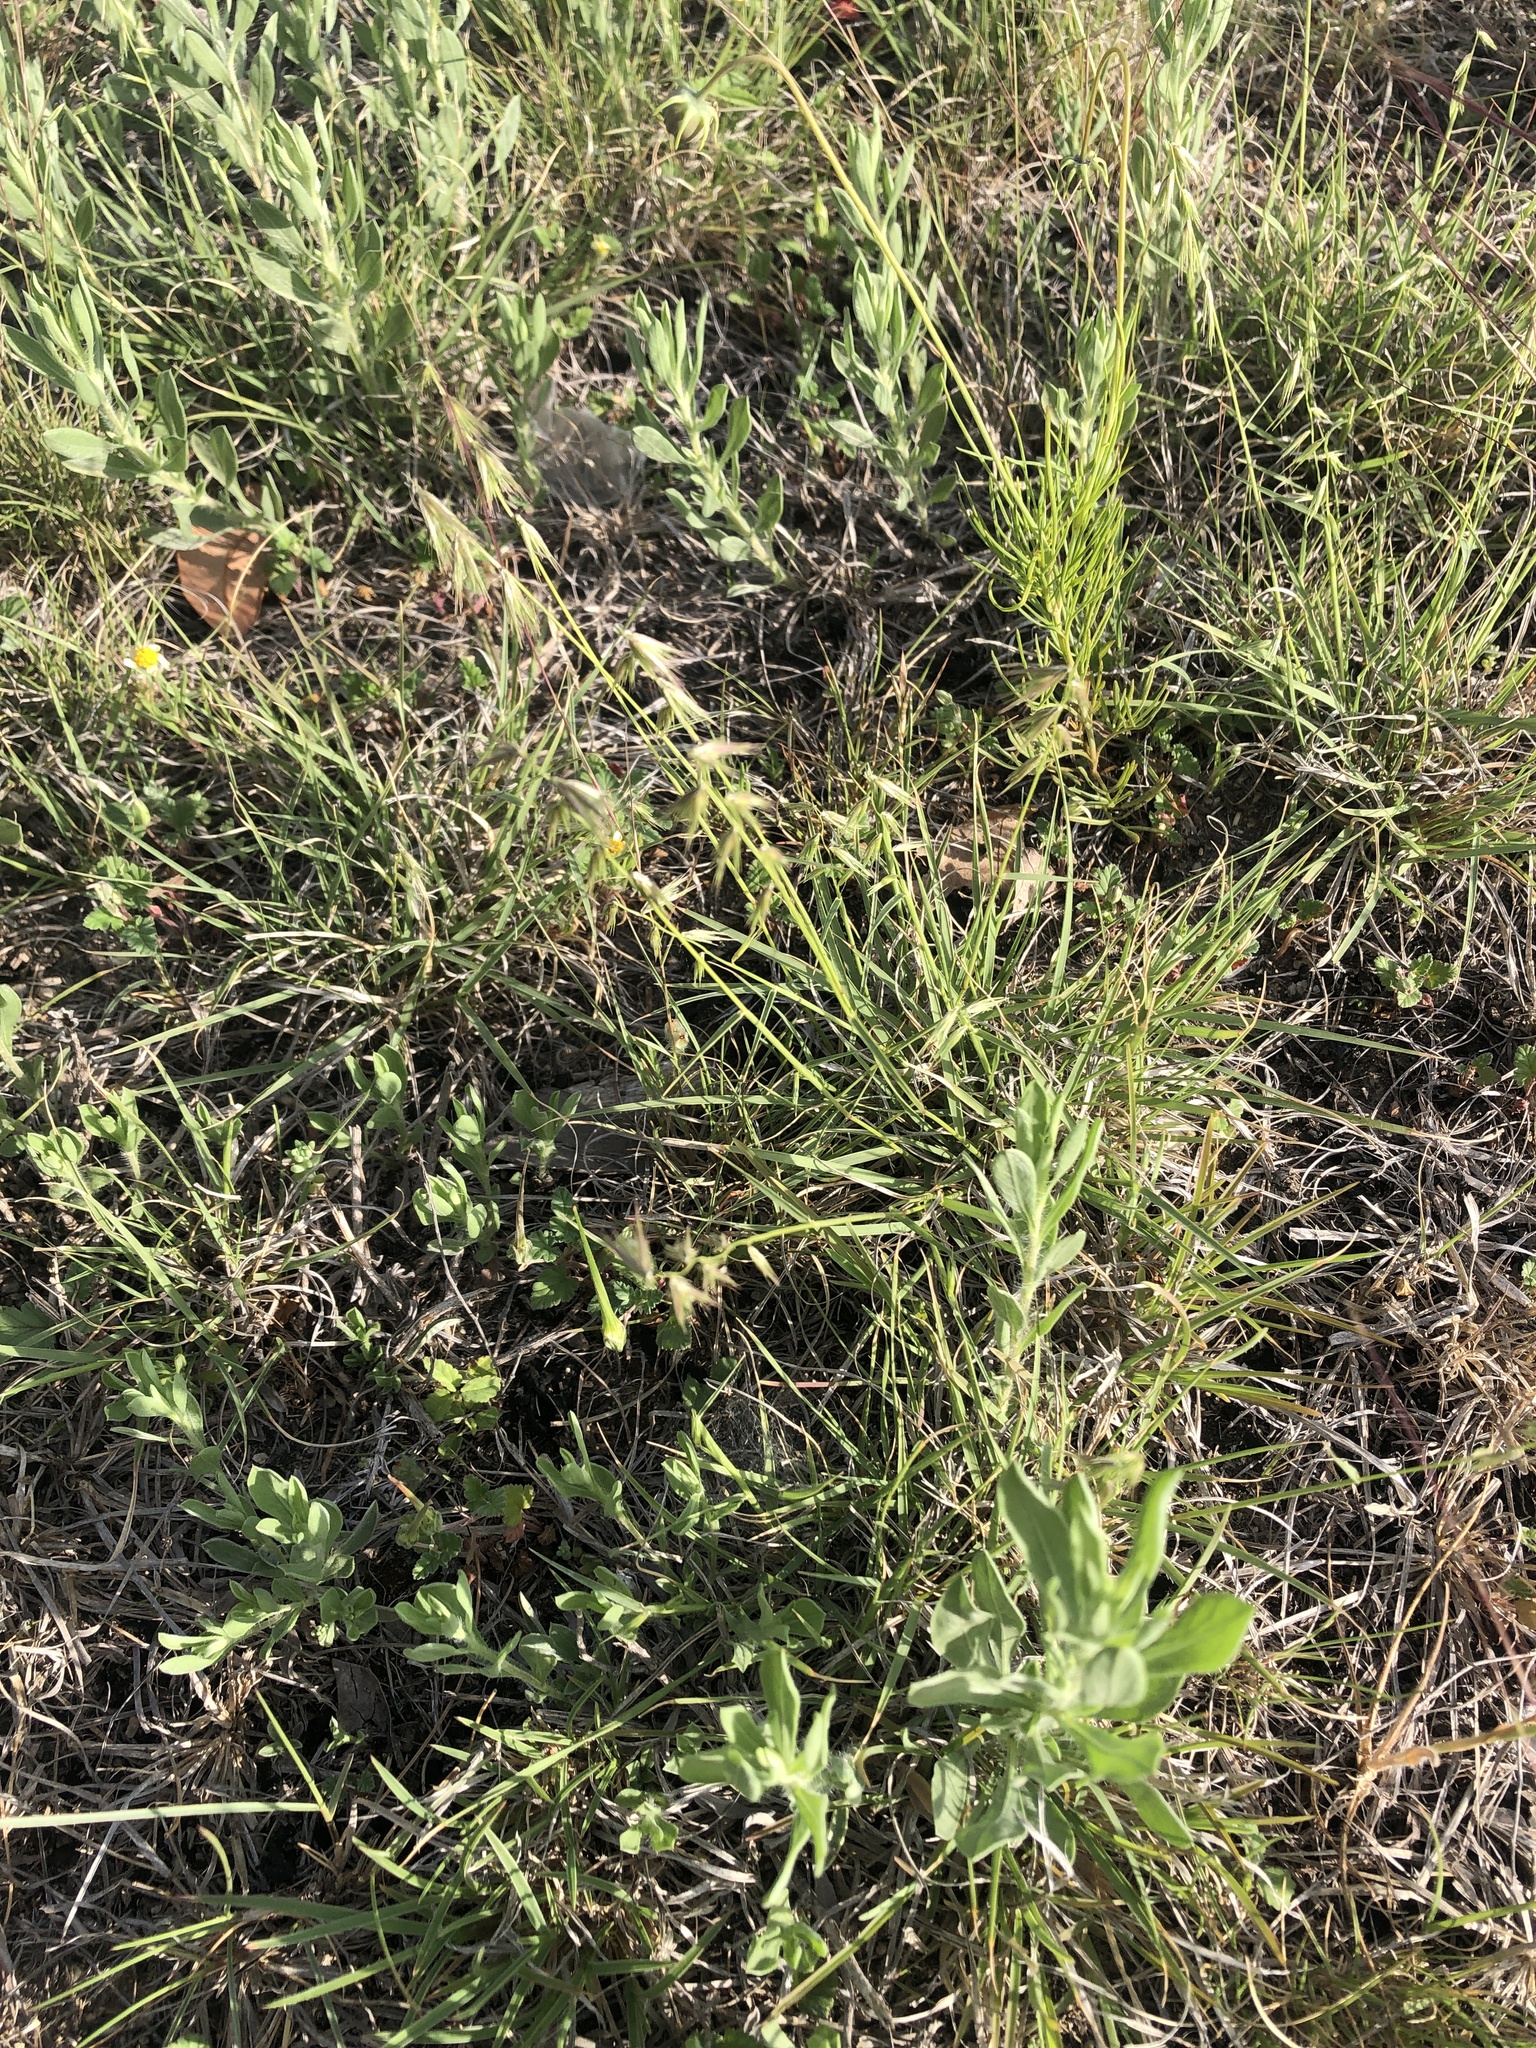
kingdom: Plantae
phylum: Tracheophyta
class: Liliopsida
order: Poales
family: Poaceae
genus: Bouteloua
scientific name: Bouteloua rigidiseta
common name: Texas grama
